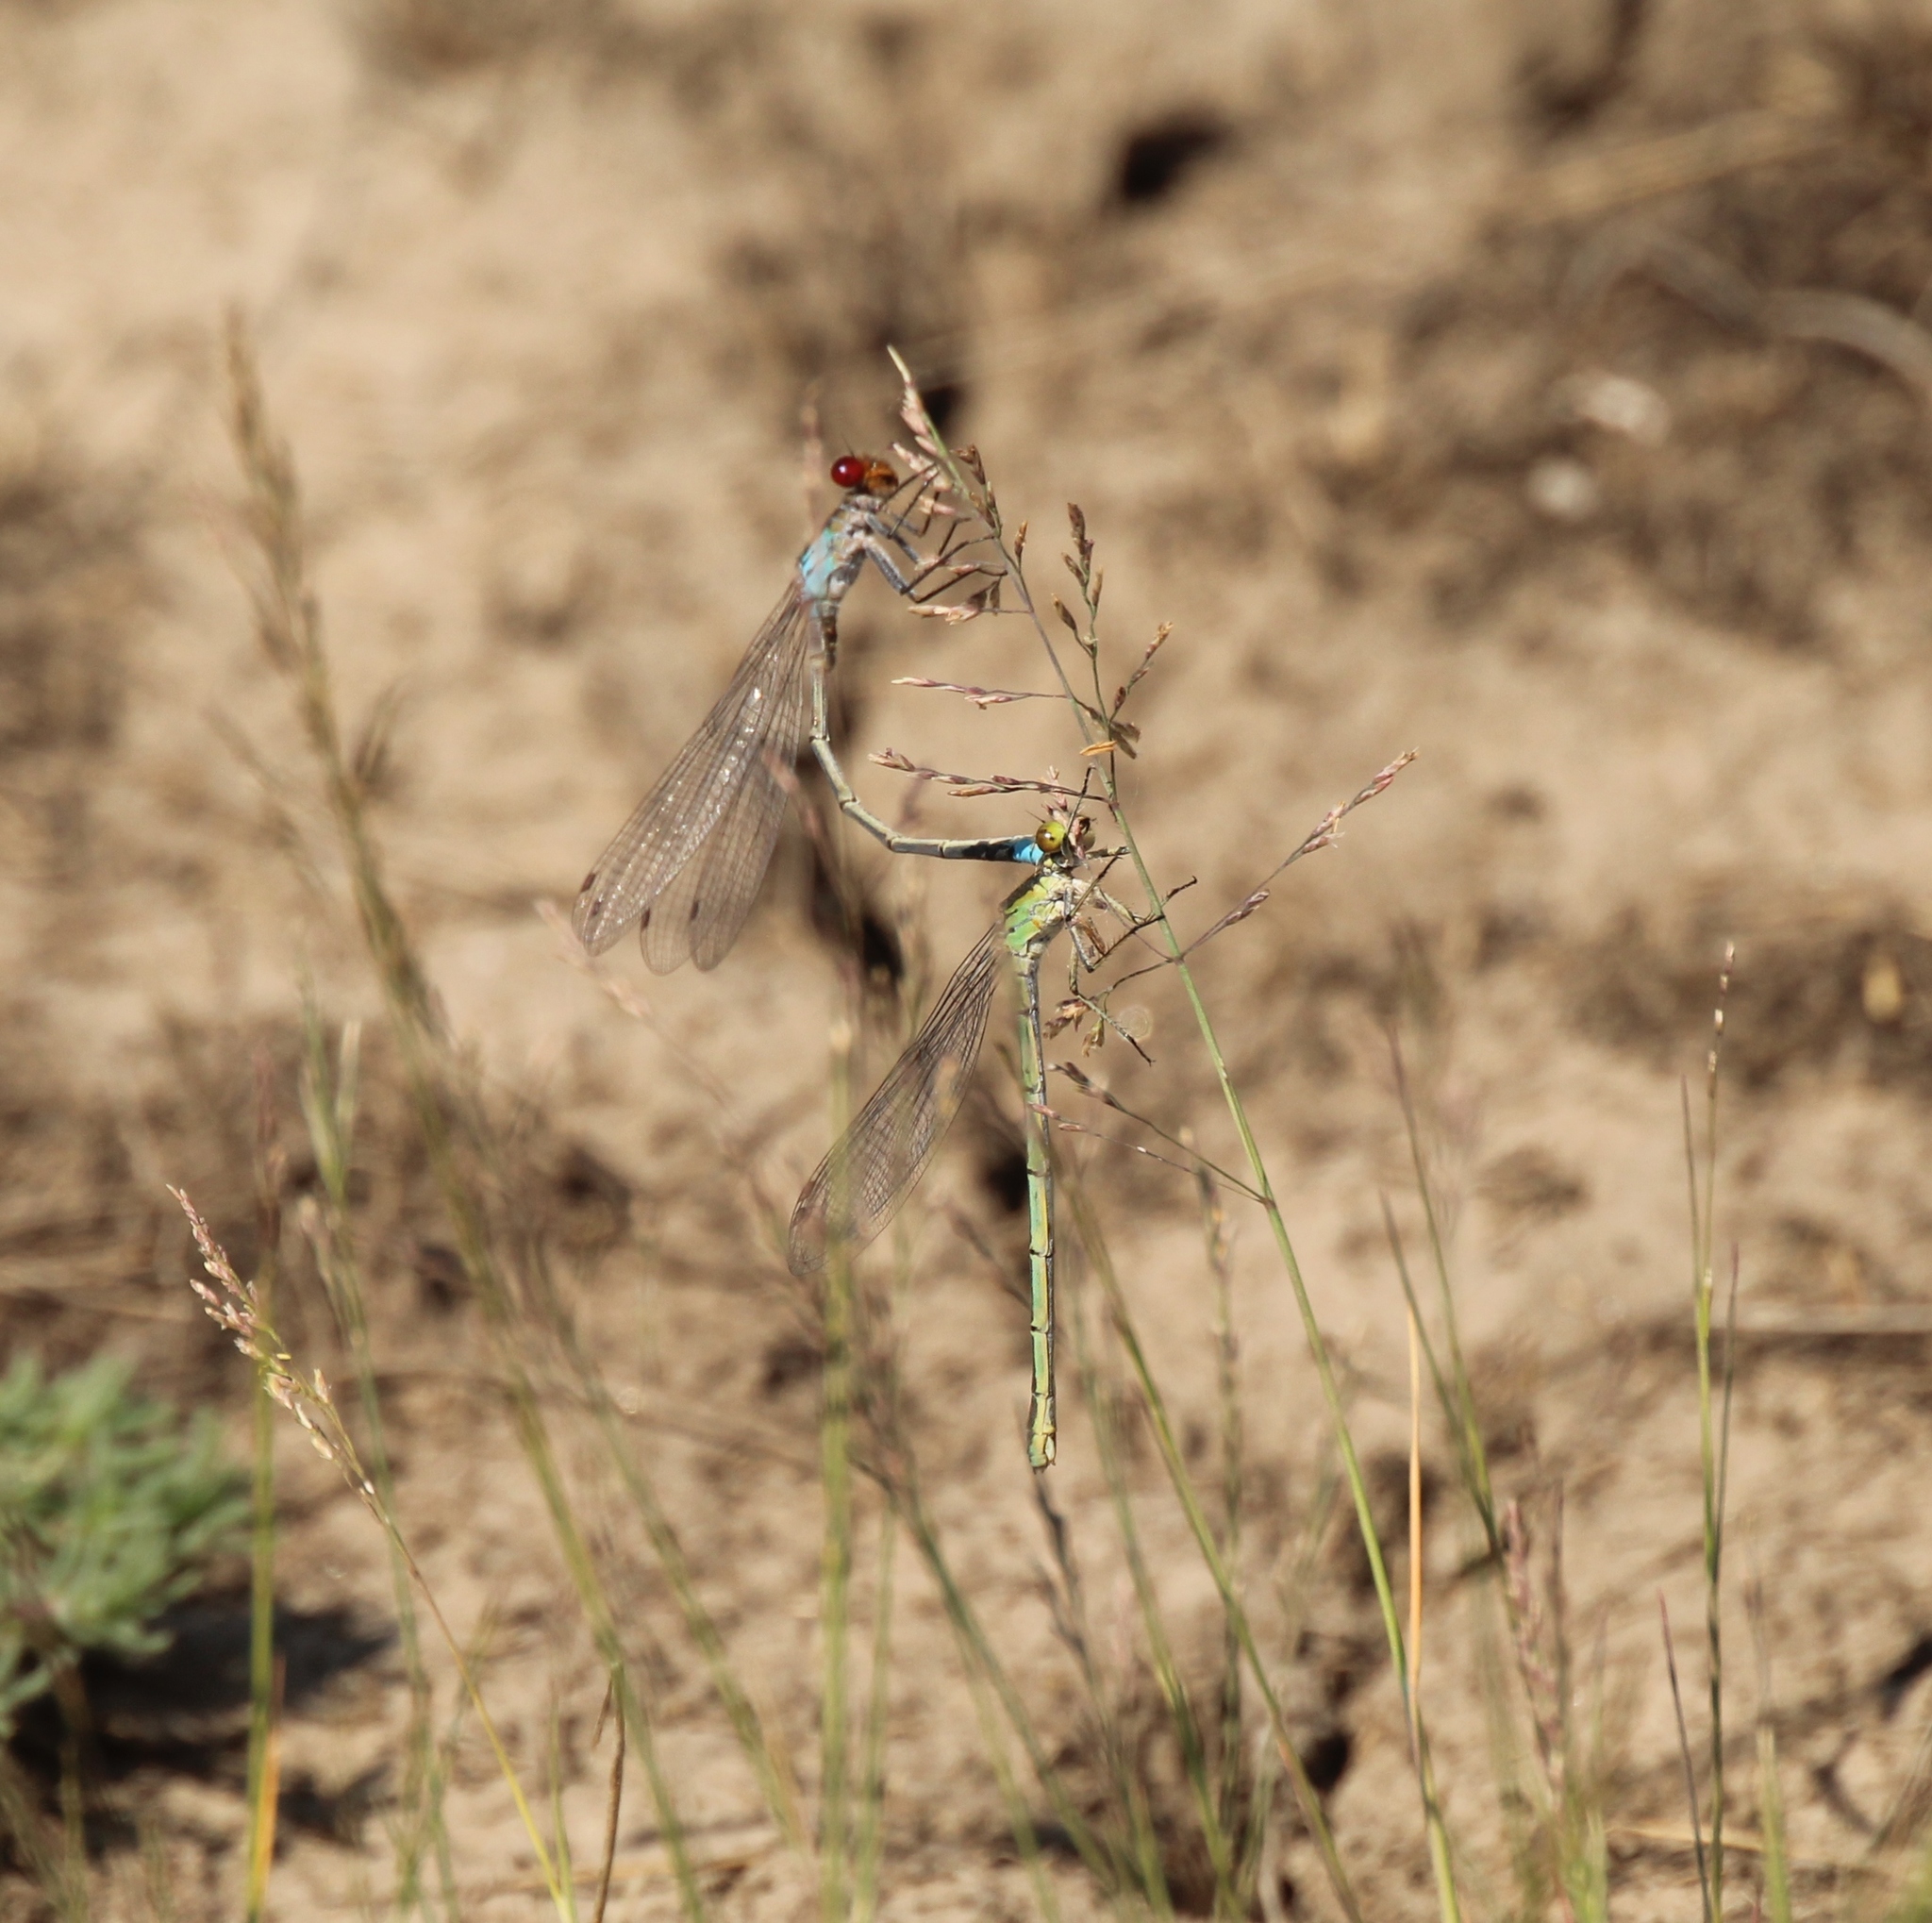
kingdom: Animalia
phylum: Arthropoda
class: Insecta
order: Odonata
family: Coenagrionidae
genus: Erythromma
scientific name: Erythromma najas
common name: Red-eyed damselfly
